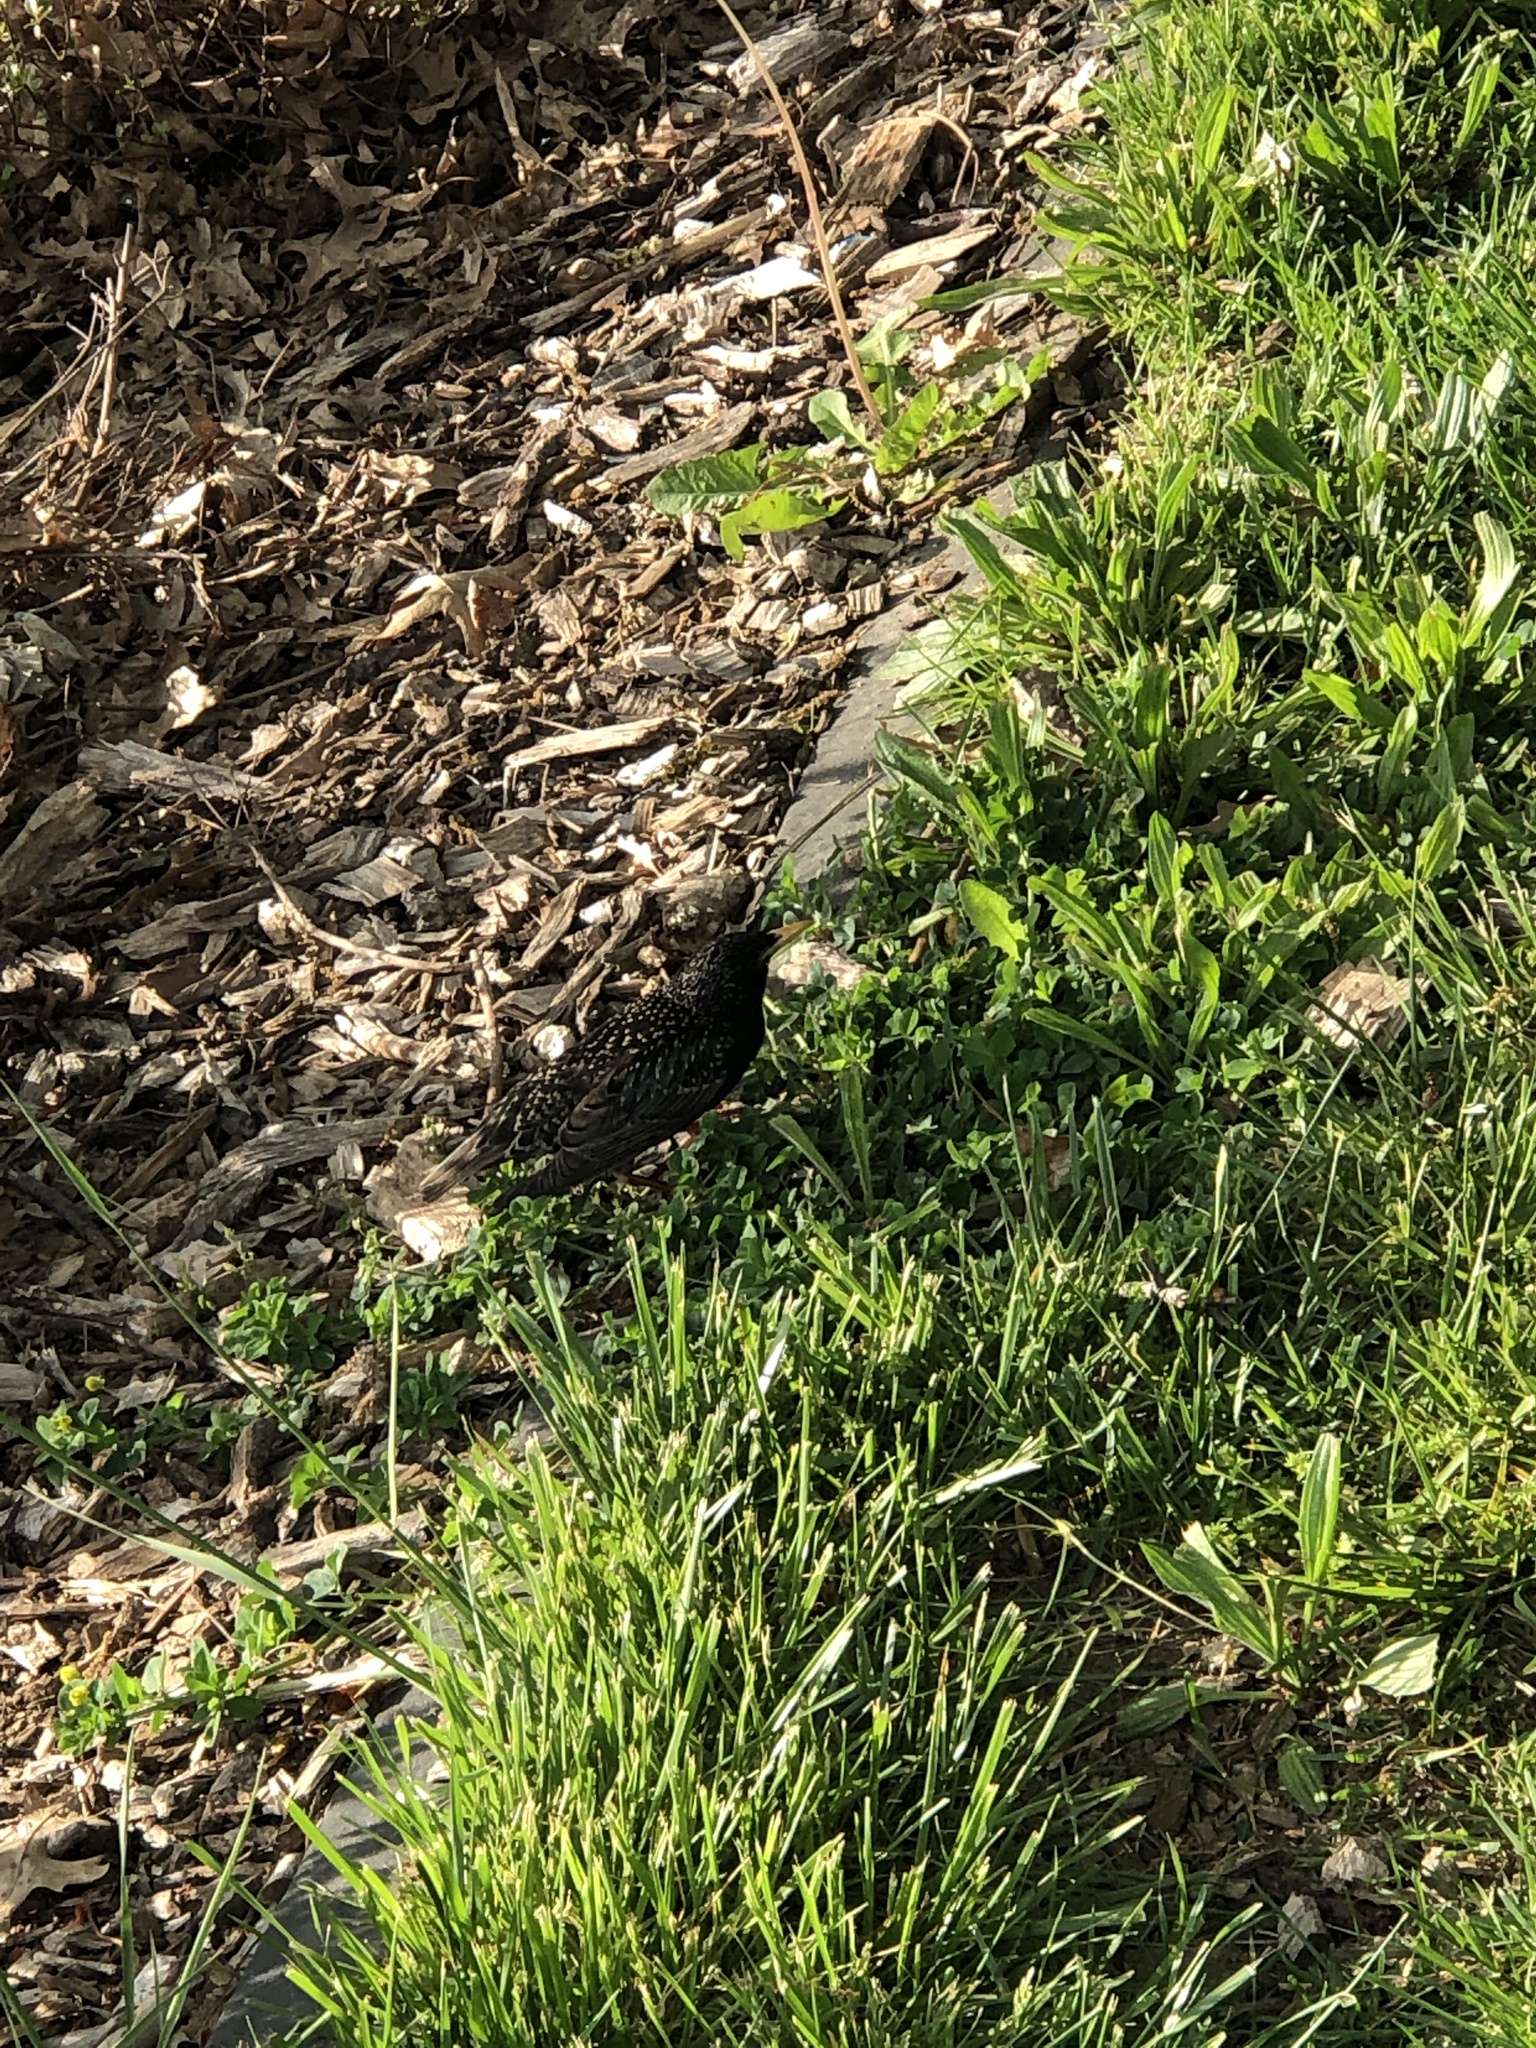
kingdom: Animalia
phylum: Chordata
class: Aves
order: Passeriformes
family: Sturnidae
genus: Sturnus
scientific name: Sturnus vulgaris
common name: Common starling
